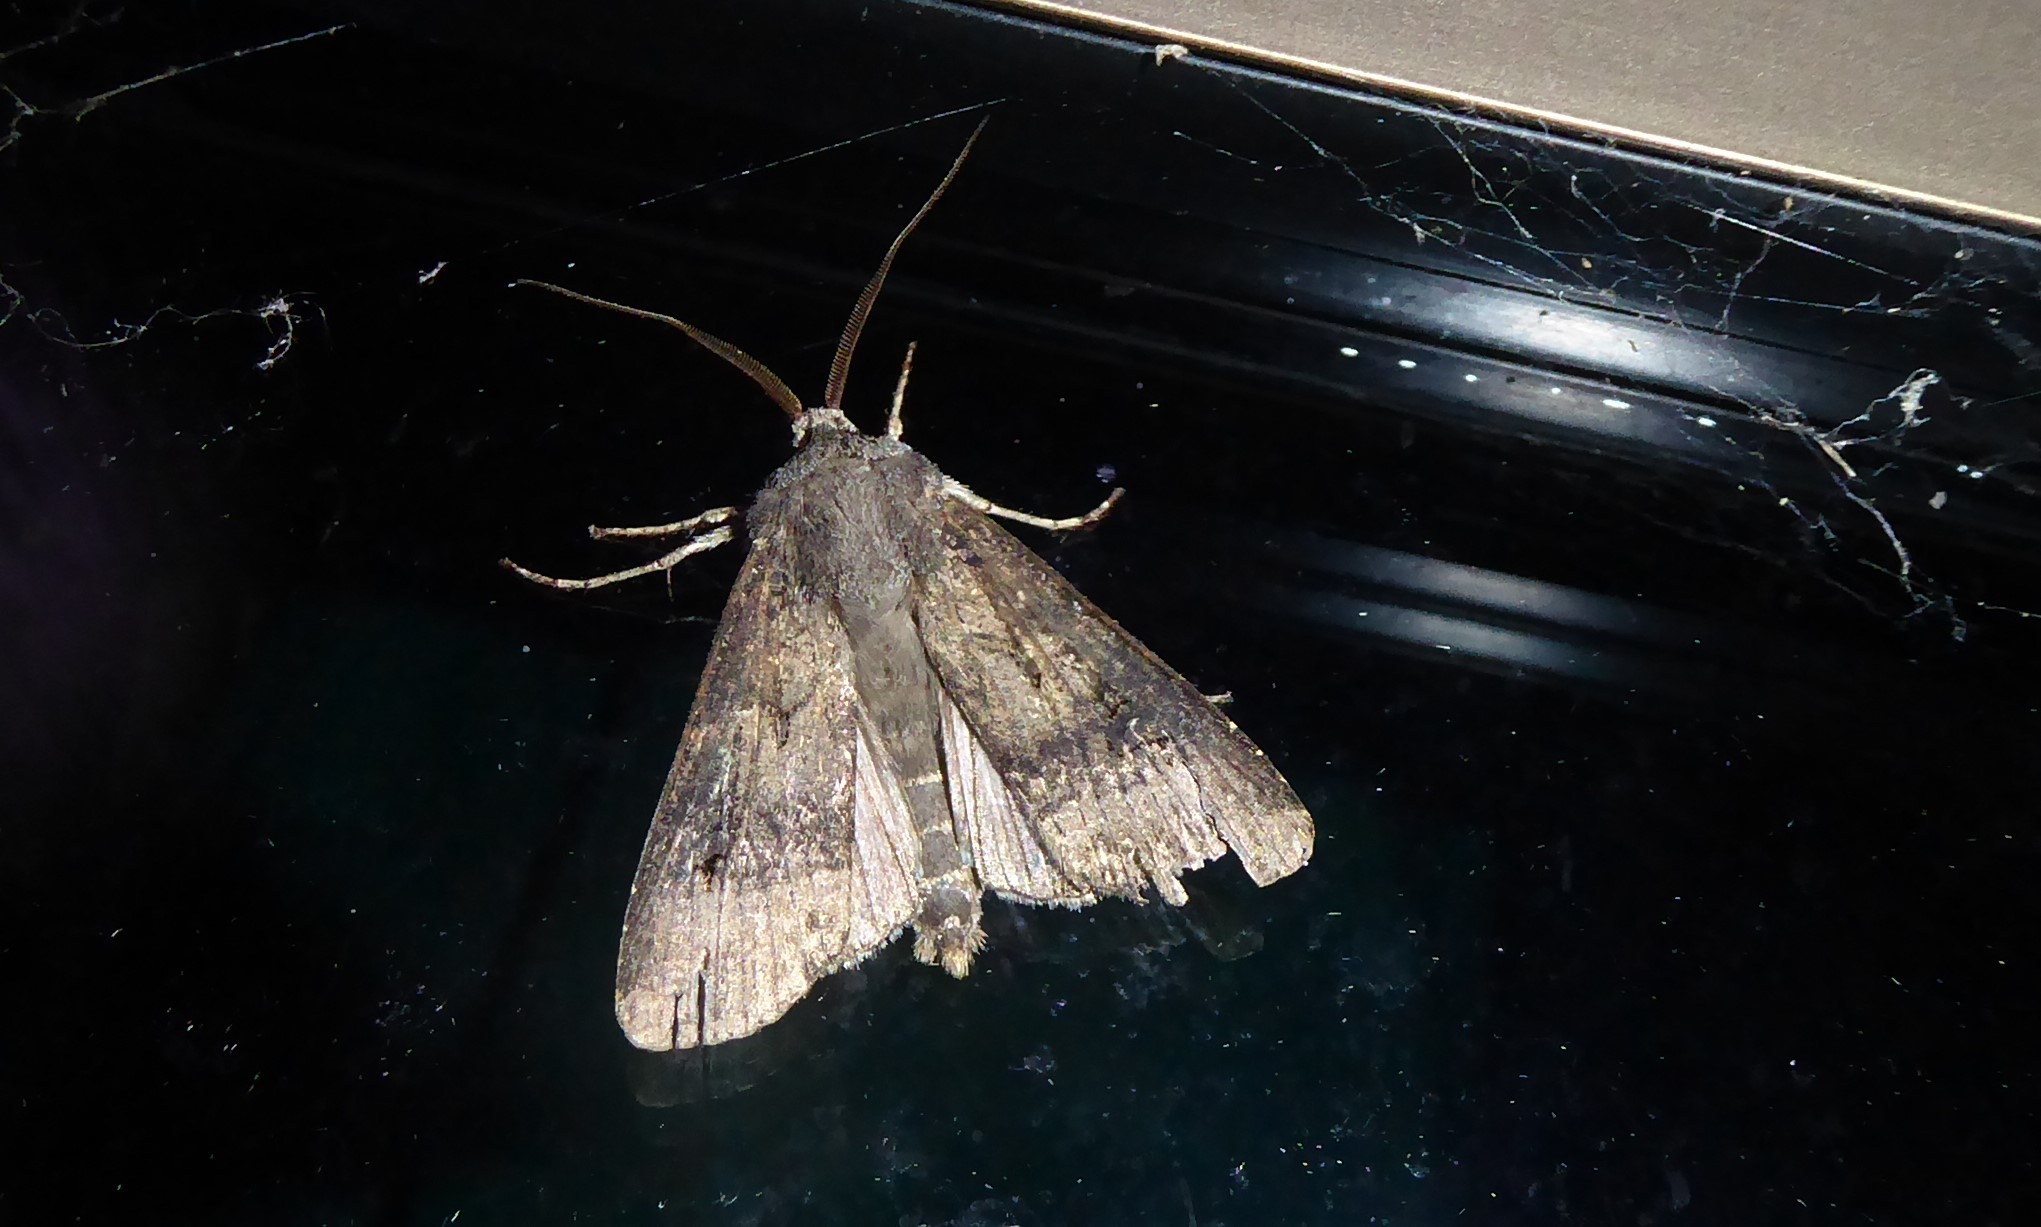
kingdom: Animalia
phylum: Arthropoda
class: Insecta
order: Lepidoptera
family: Noctuidae
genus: Agrotis
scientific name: Agrotis ipsilon
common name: Dark sword-grass
